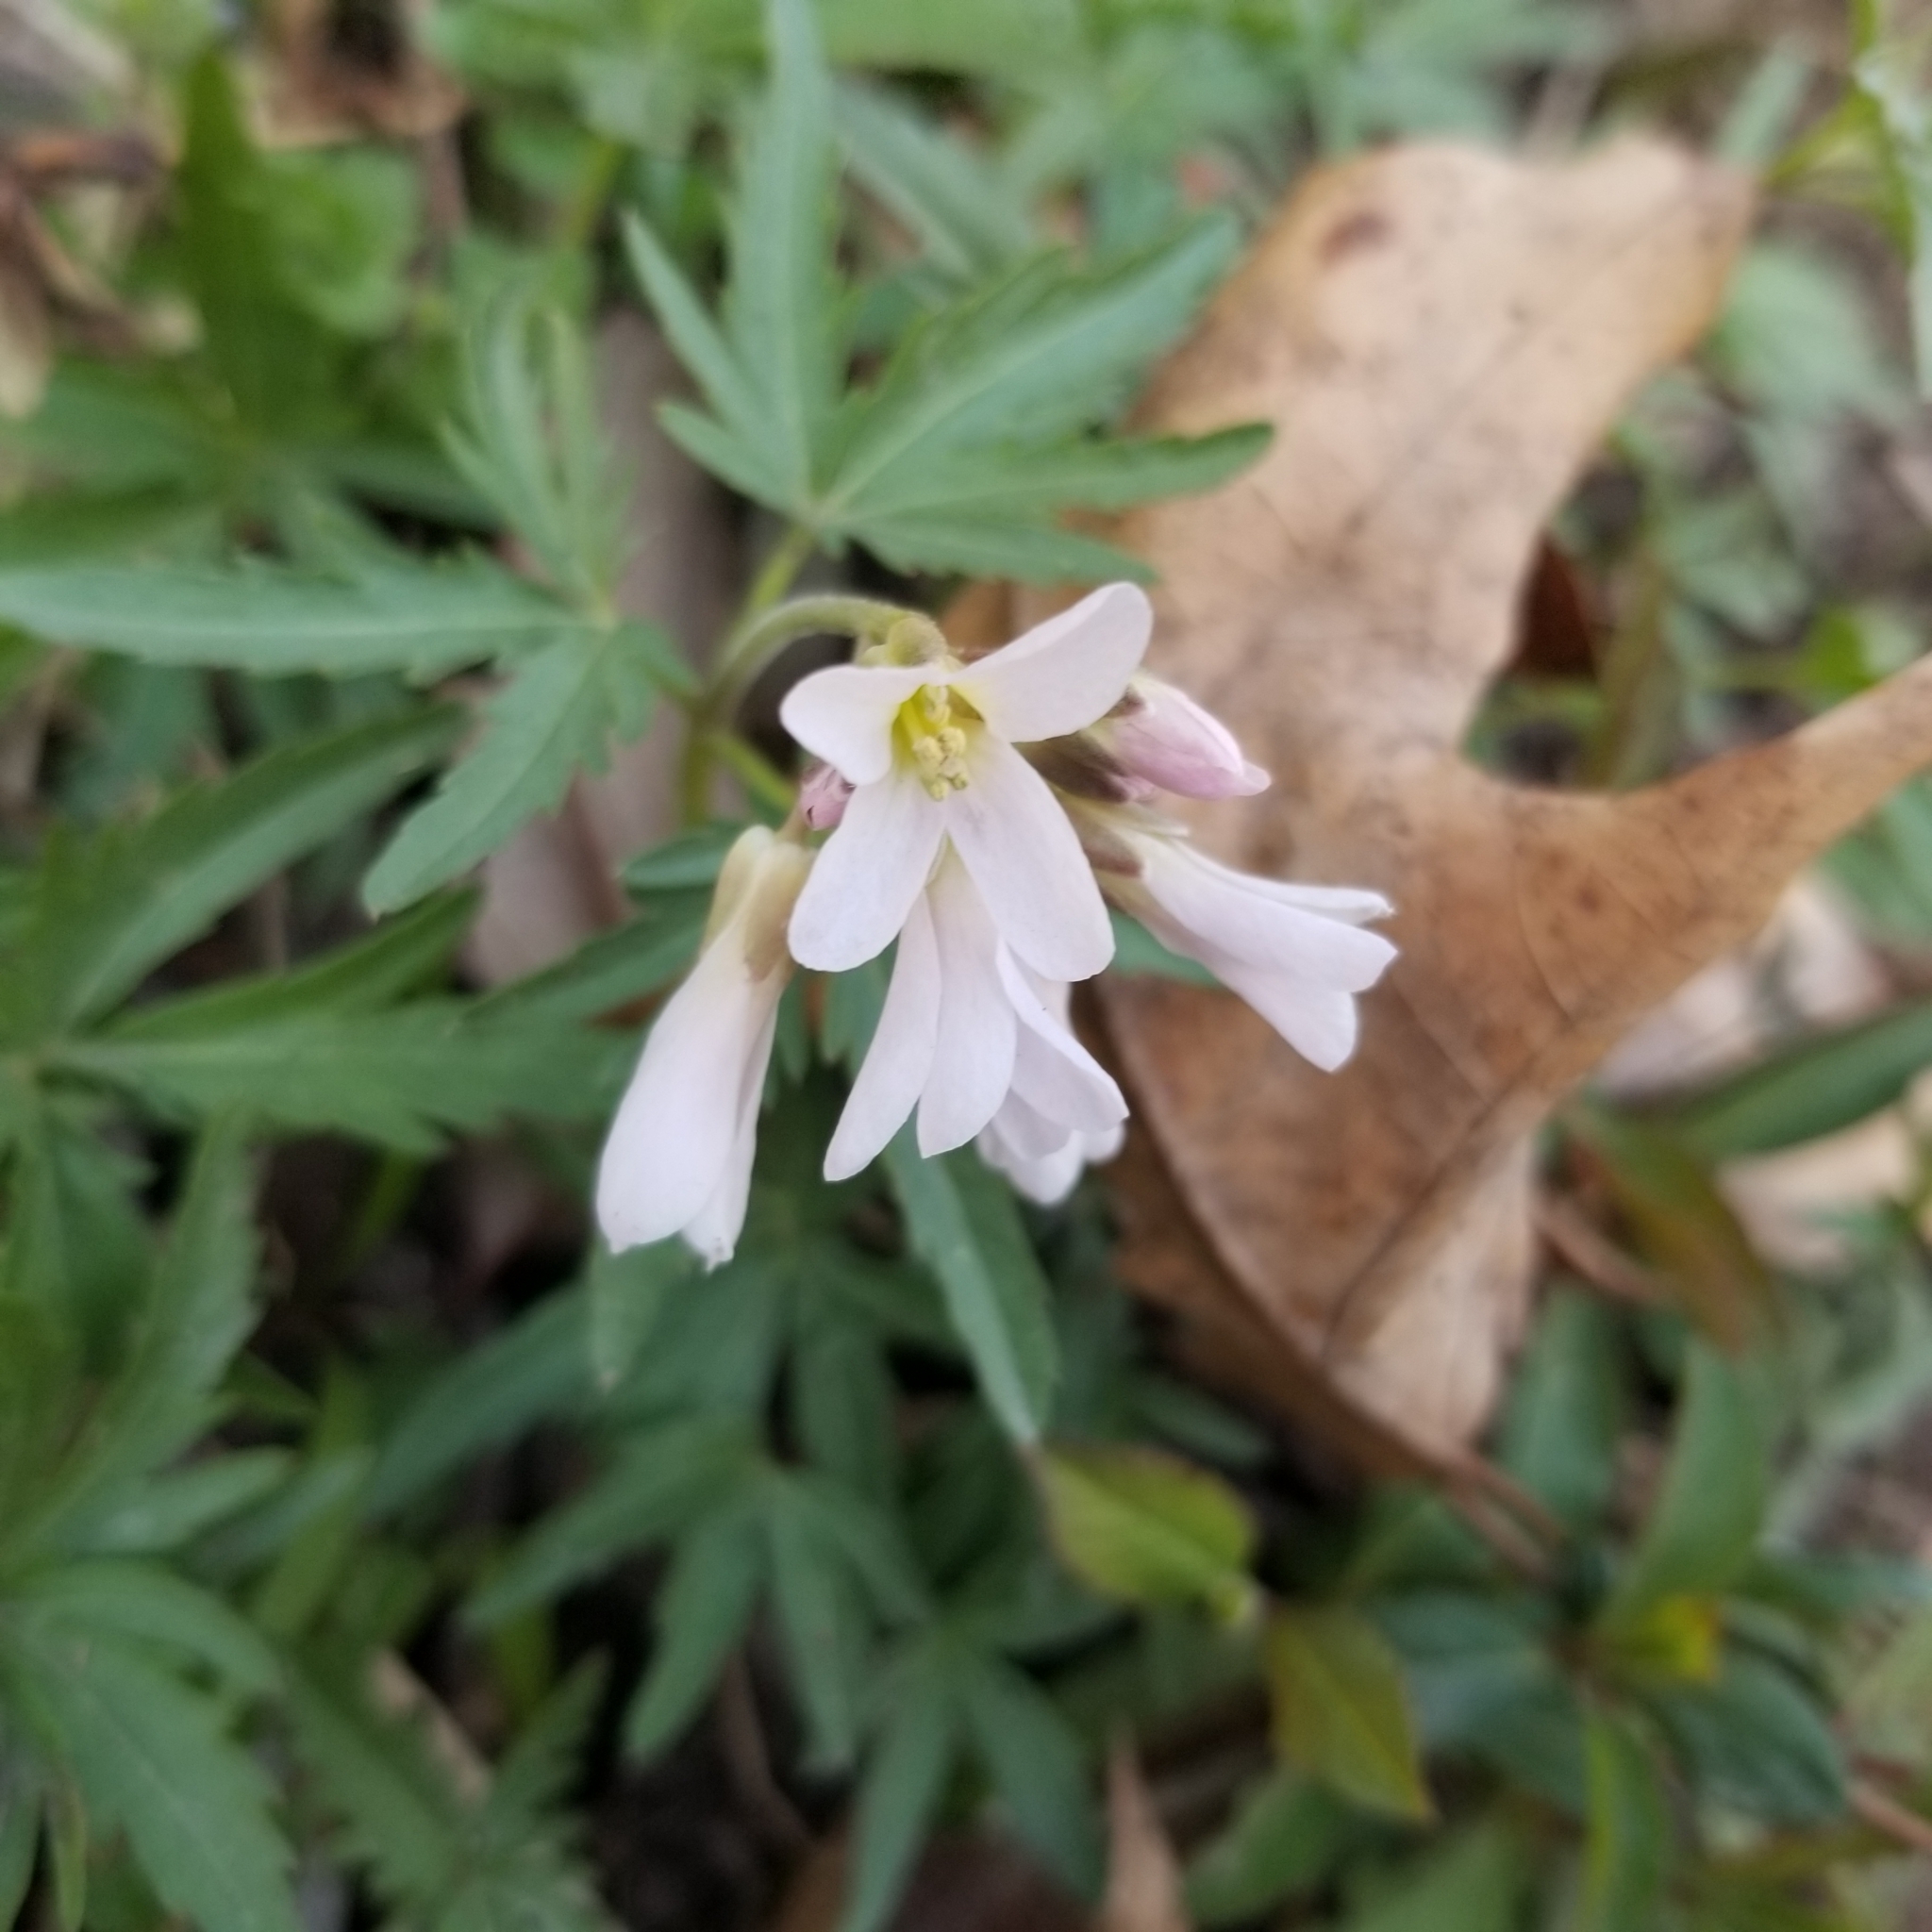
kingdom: Plantae
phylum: Tracheophyta
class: Magnoliopsida
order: Brassicales
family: Brassicaceae
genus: Cardamine
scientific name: Cardamine concatenata
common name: Cut-leaf toothcup
